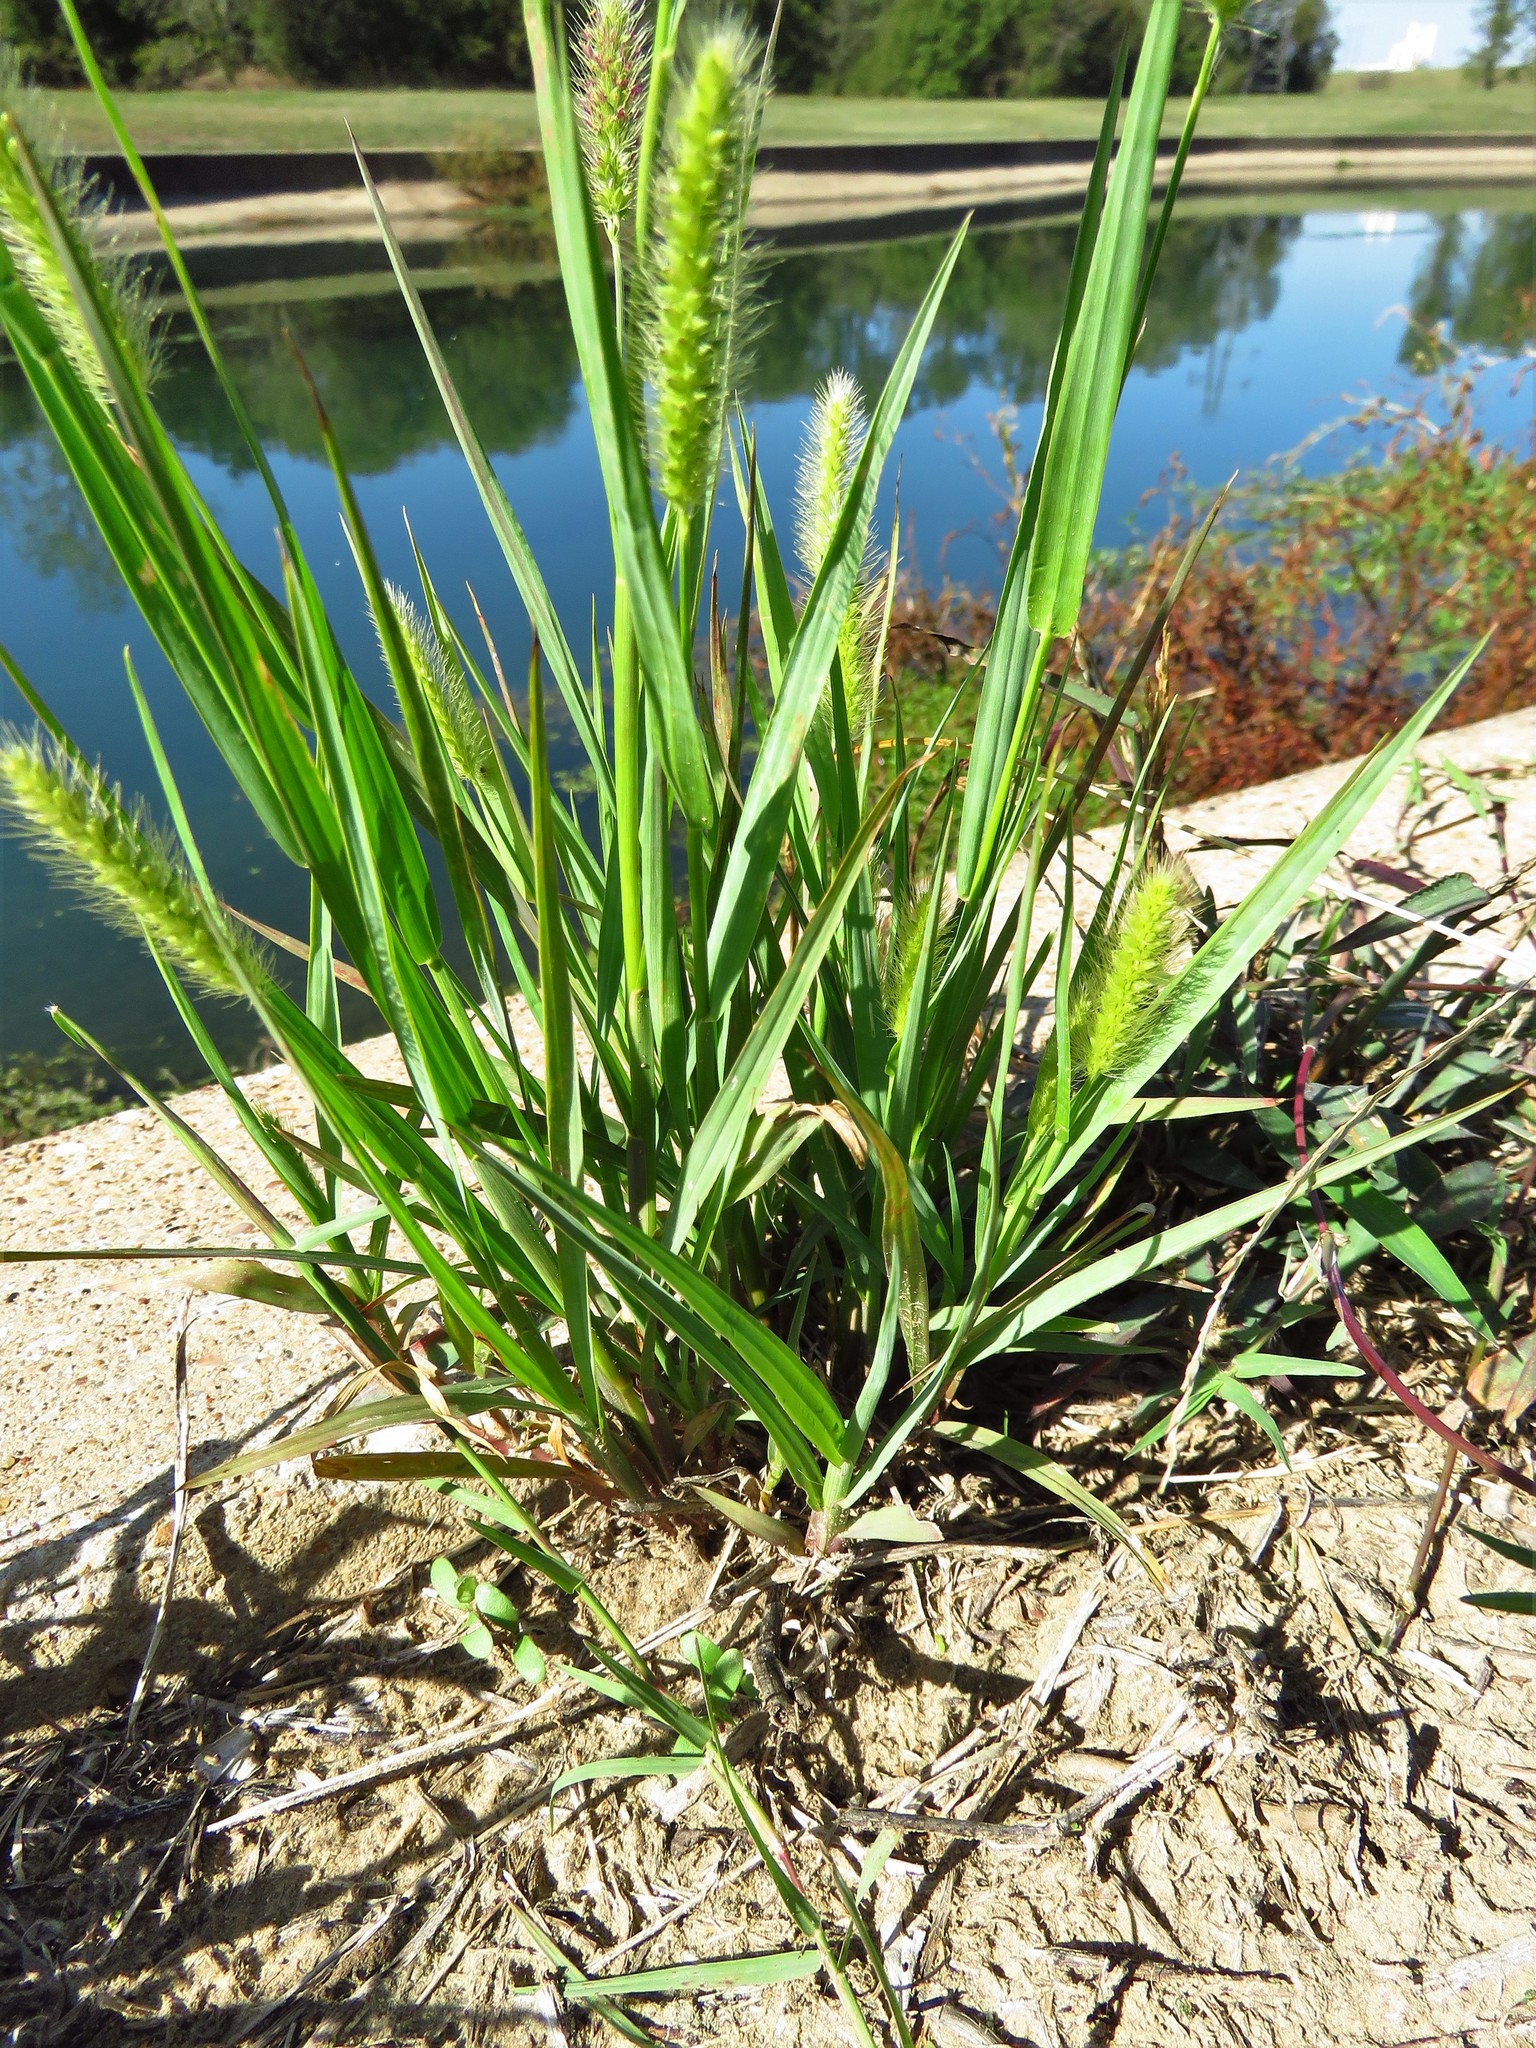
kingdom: Plantae
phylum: Tracheophyta
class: Liliopsida
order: Poales
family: Poaceae
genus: Setaria
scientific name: Setaria parviflora
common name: Knotroot bristle-grass
